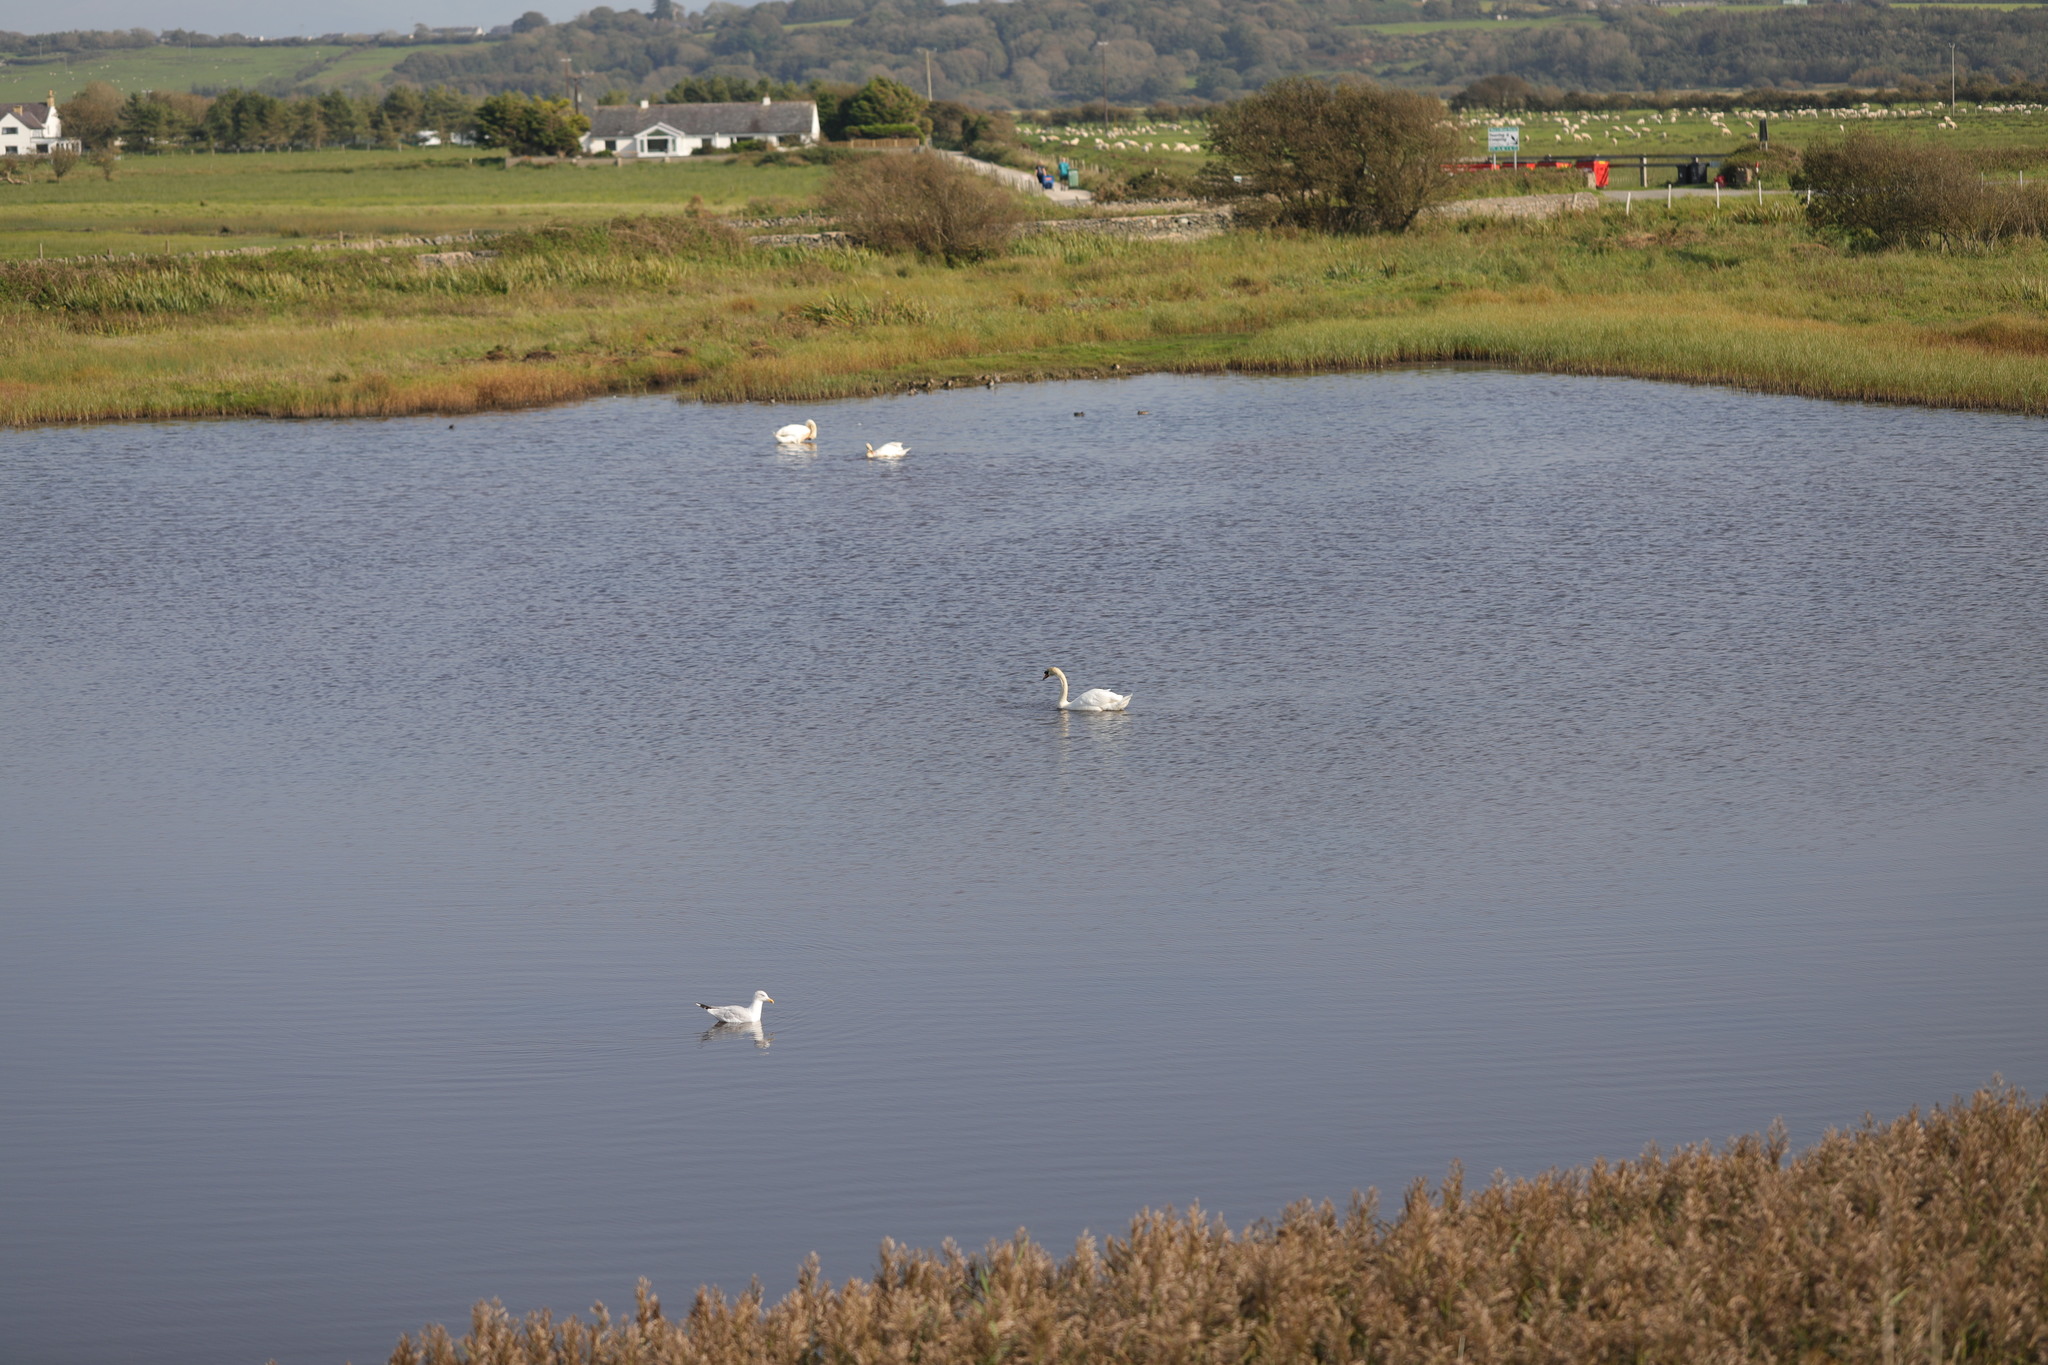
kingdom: Animalia
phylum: Chordata
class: Aves
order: Anseriformes
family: Anatidae
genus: Cygnus
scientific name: Cygnus olor
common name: Mute swan
